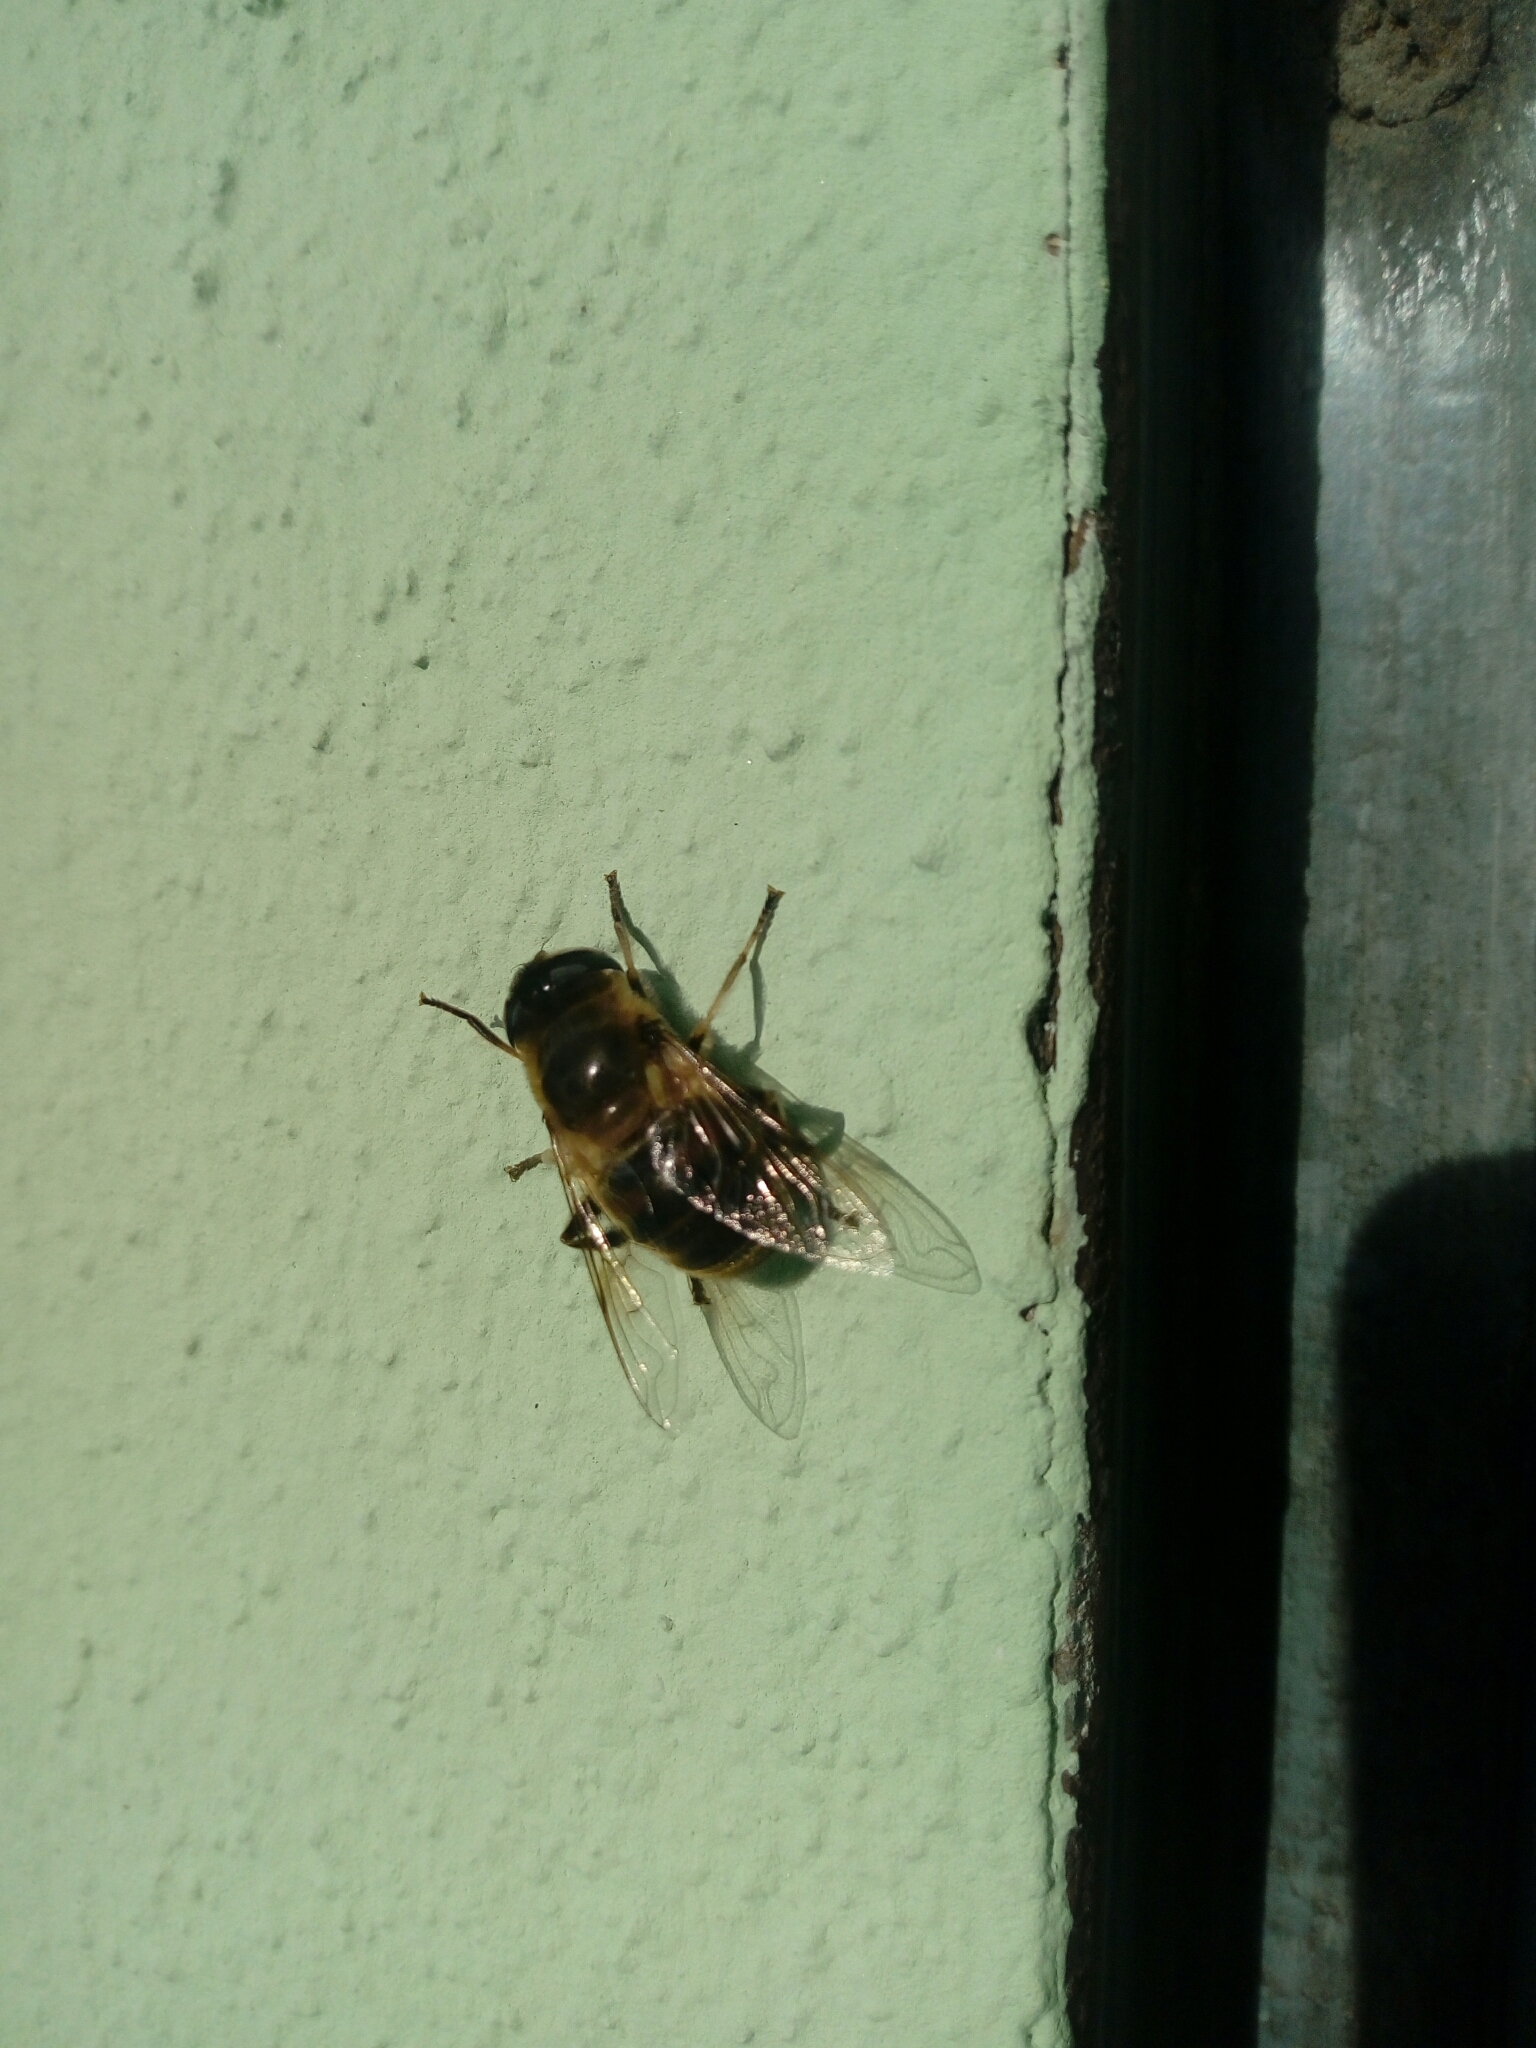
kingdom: Animalia
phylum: Arthropoda
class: Insecta
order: Diptera
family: Syrphidae
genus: Eristalis
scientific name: Eristalis tenax
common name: Drone fly
